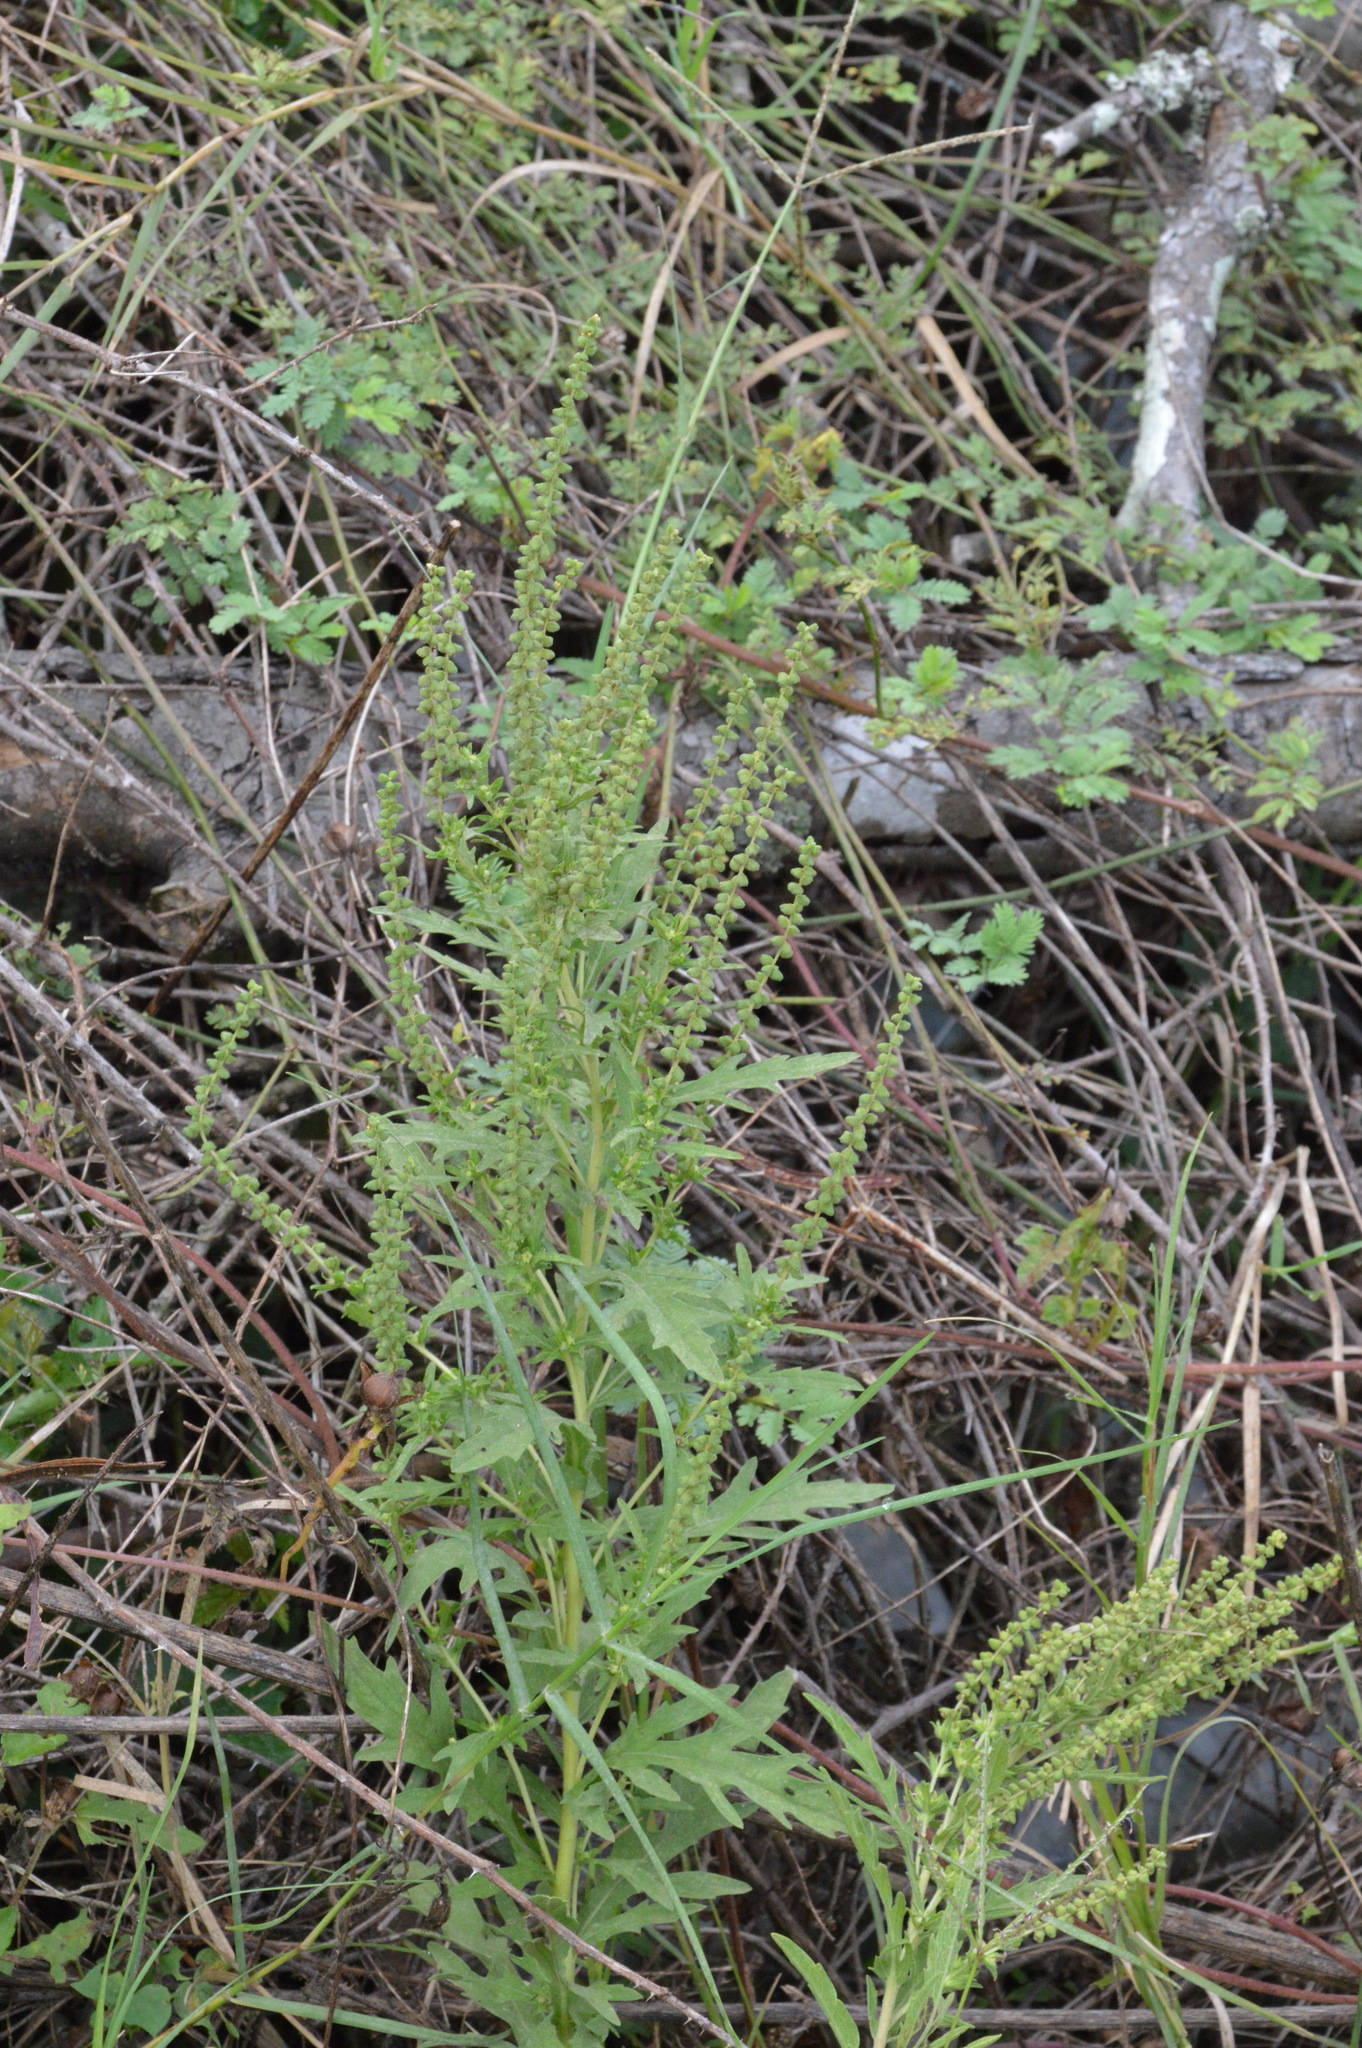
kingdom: Plantae
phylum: Tracheophyta
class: Magnoliopsida
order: Asterales
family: Asteraceae
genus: Ambrosia
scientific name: Ambrosia psilostachya
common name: Perennial ragweed
